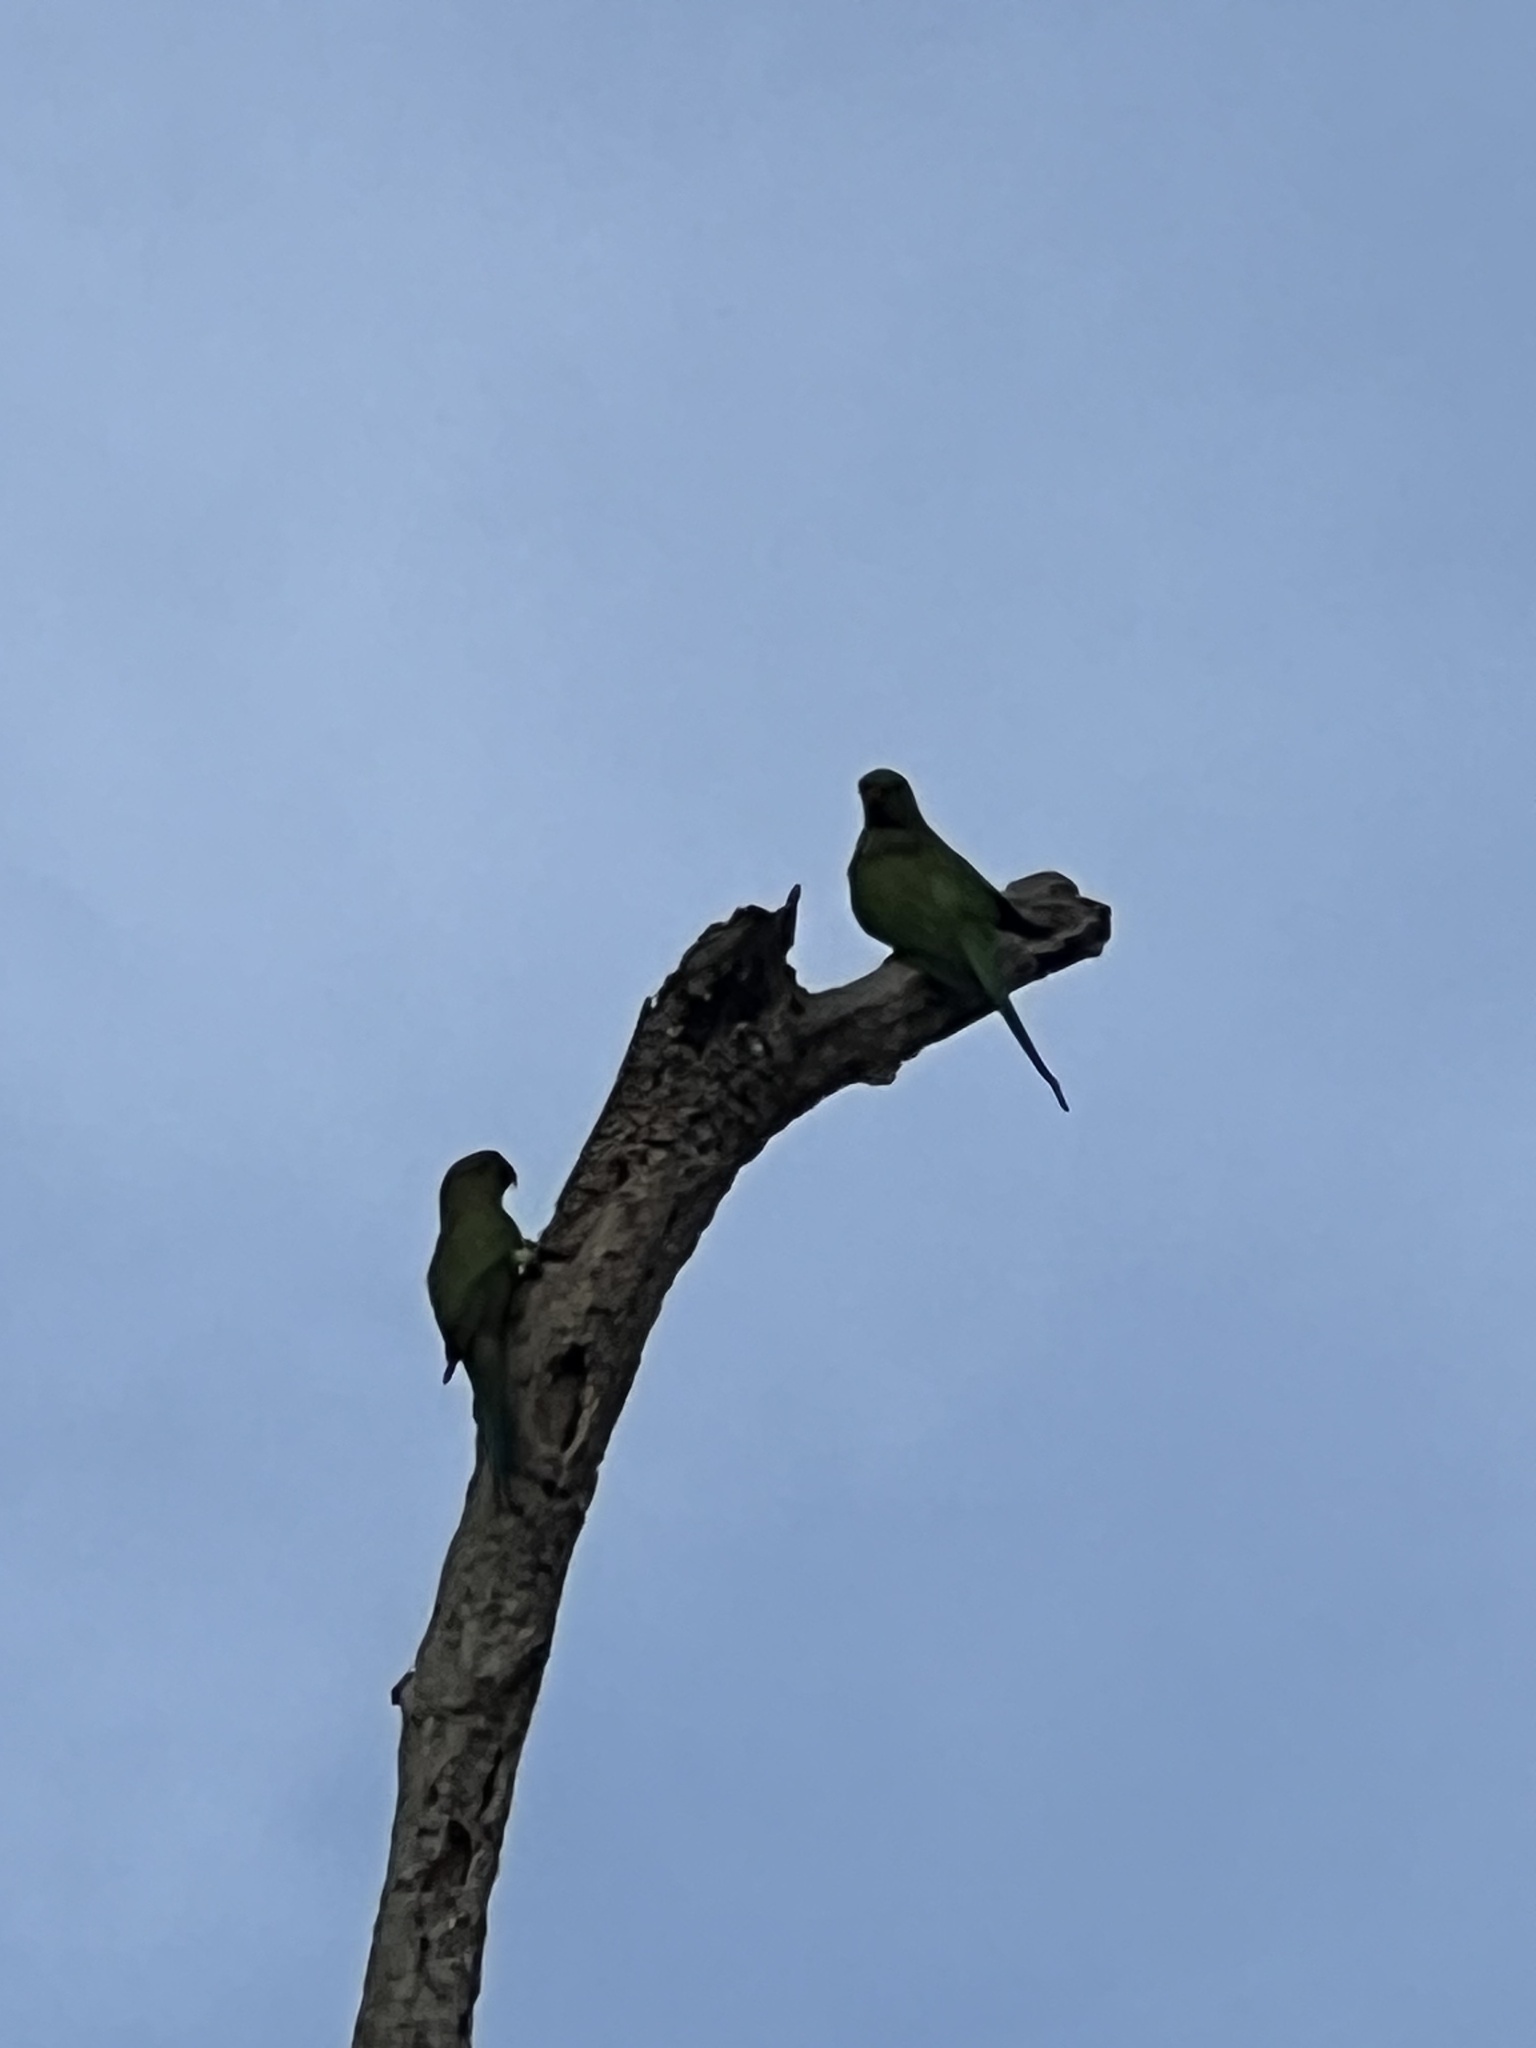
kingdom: Animalia
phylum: Chordata
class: Aves
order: Psittaciformes
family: Psittacidae
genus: Psittacula
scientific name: Psittacula krameri
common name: Rose-ringed parakeet
